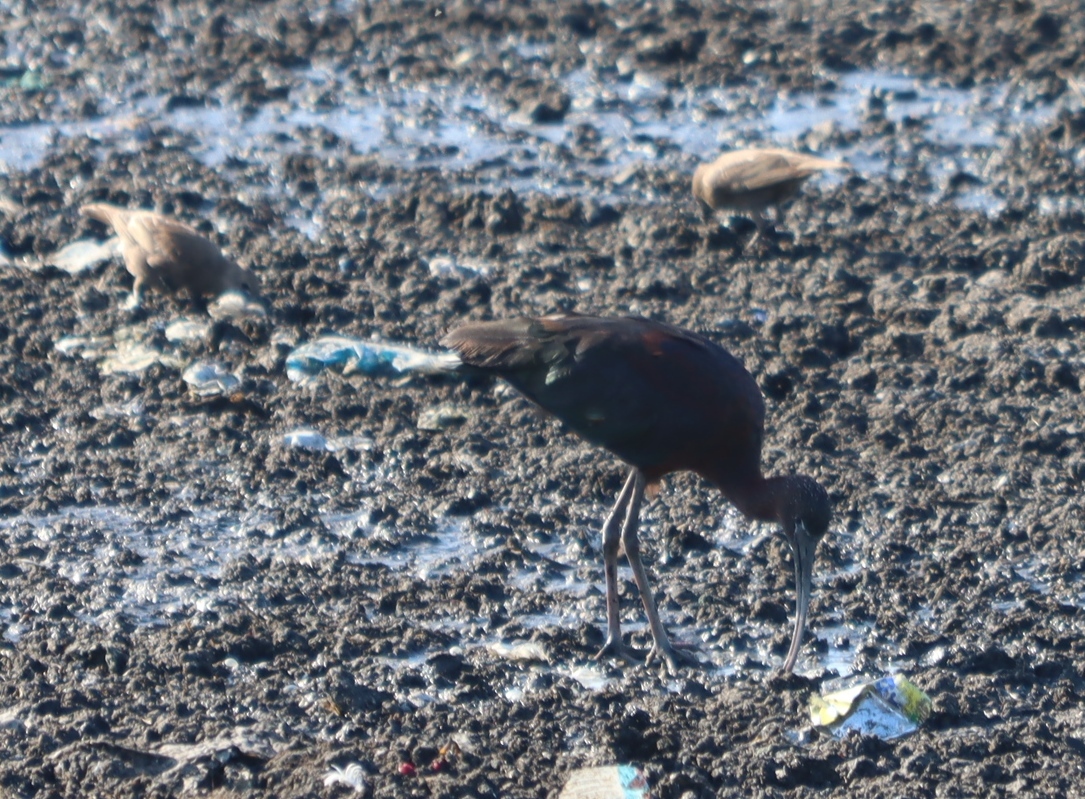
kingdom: Animalia
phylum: Chordata
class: Aves
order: Pelecaniformes
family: Threskiornithidae
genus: Plegadis
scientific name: Plegadis falcinellus
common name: Glossy ibis
